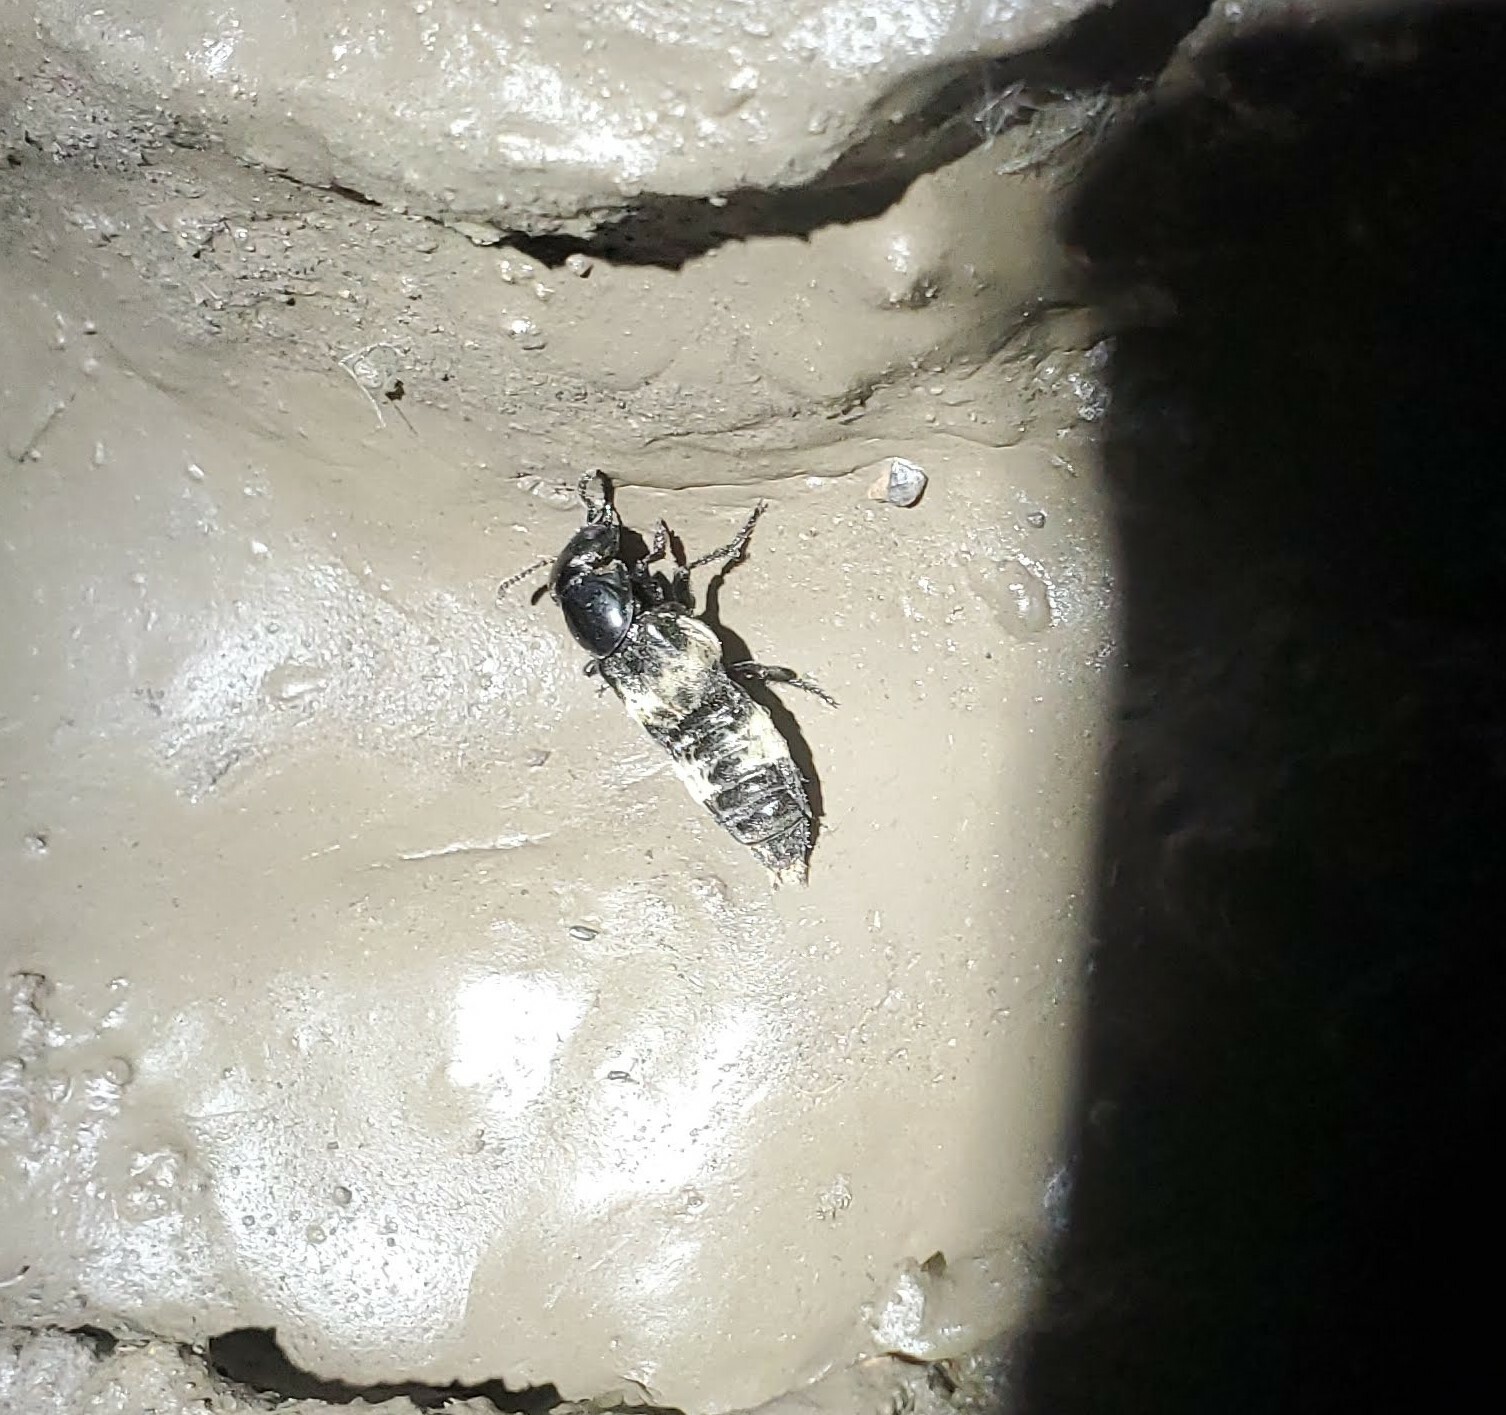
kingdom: Animalia
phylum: Arthropoda
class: Insecta
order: Coleoptera
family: Staphylinidae
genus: Creophilus
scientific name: Creophilus maxillosus
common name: Hairy rove beetle
